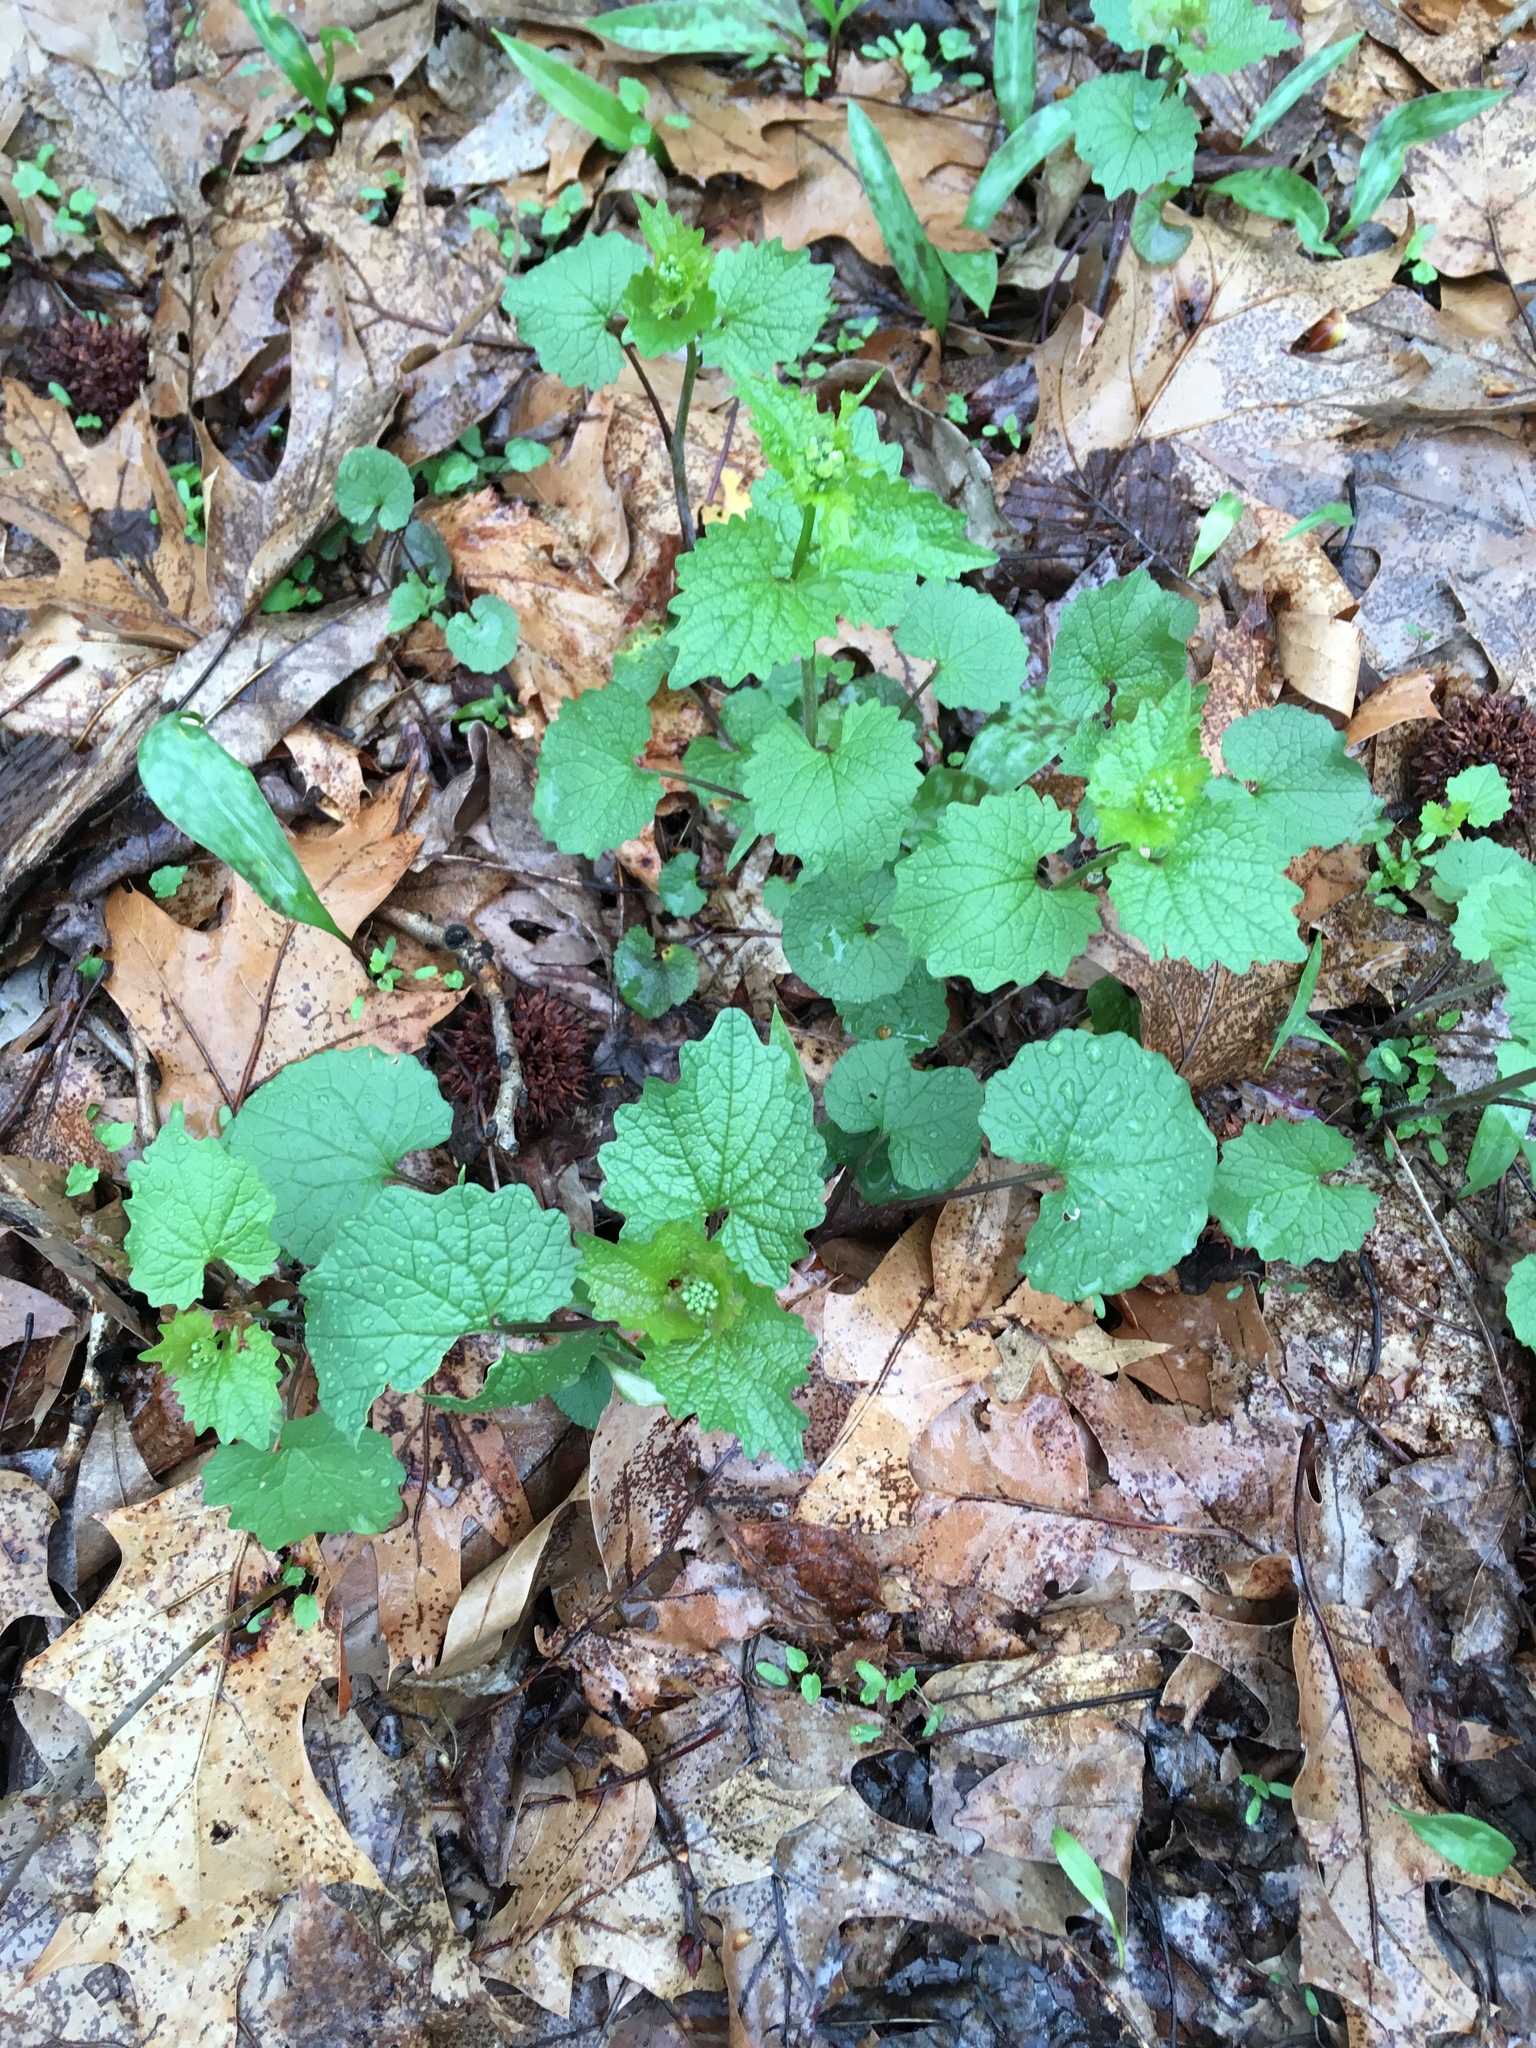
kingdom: Plantae
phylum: Tracheophyta
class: Magnoliopsida
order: Brassicales
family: Brassicaceae
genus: Alliaria
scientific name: Alliaria petiolata
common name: Garlic mustard
